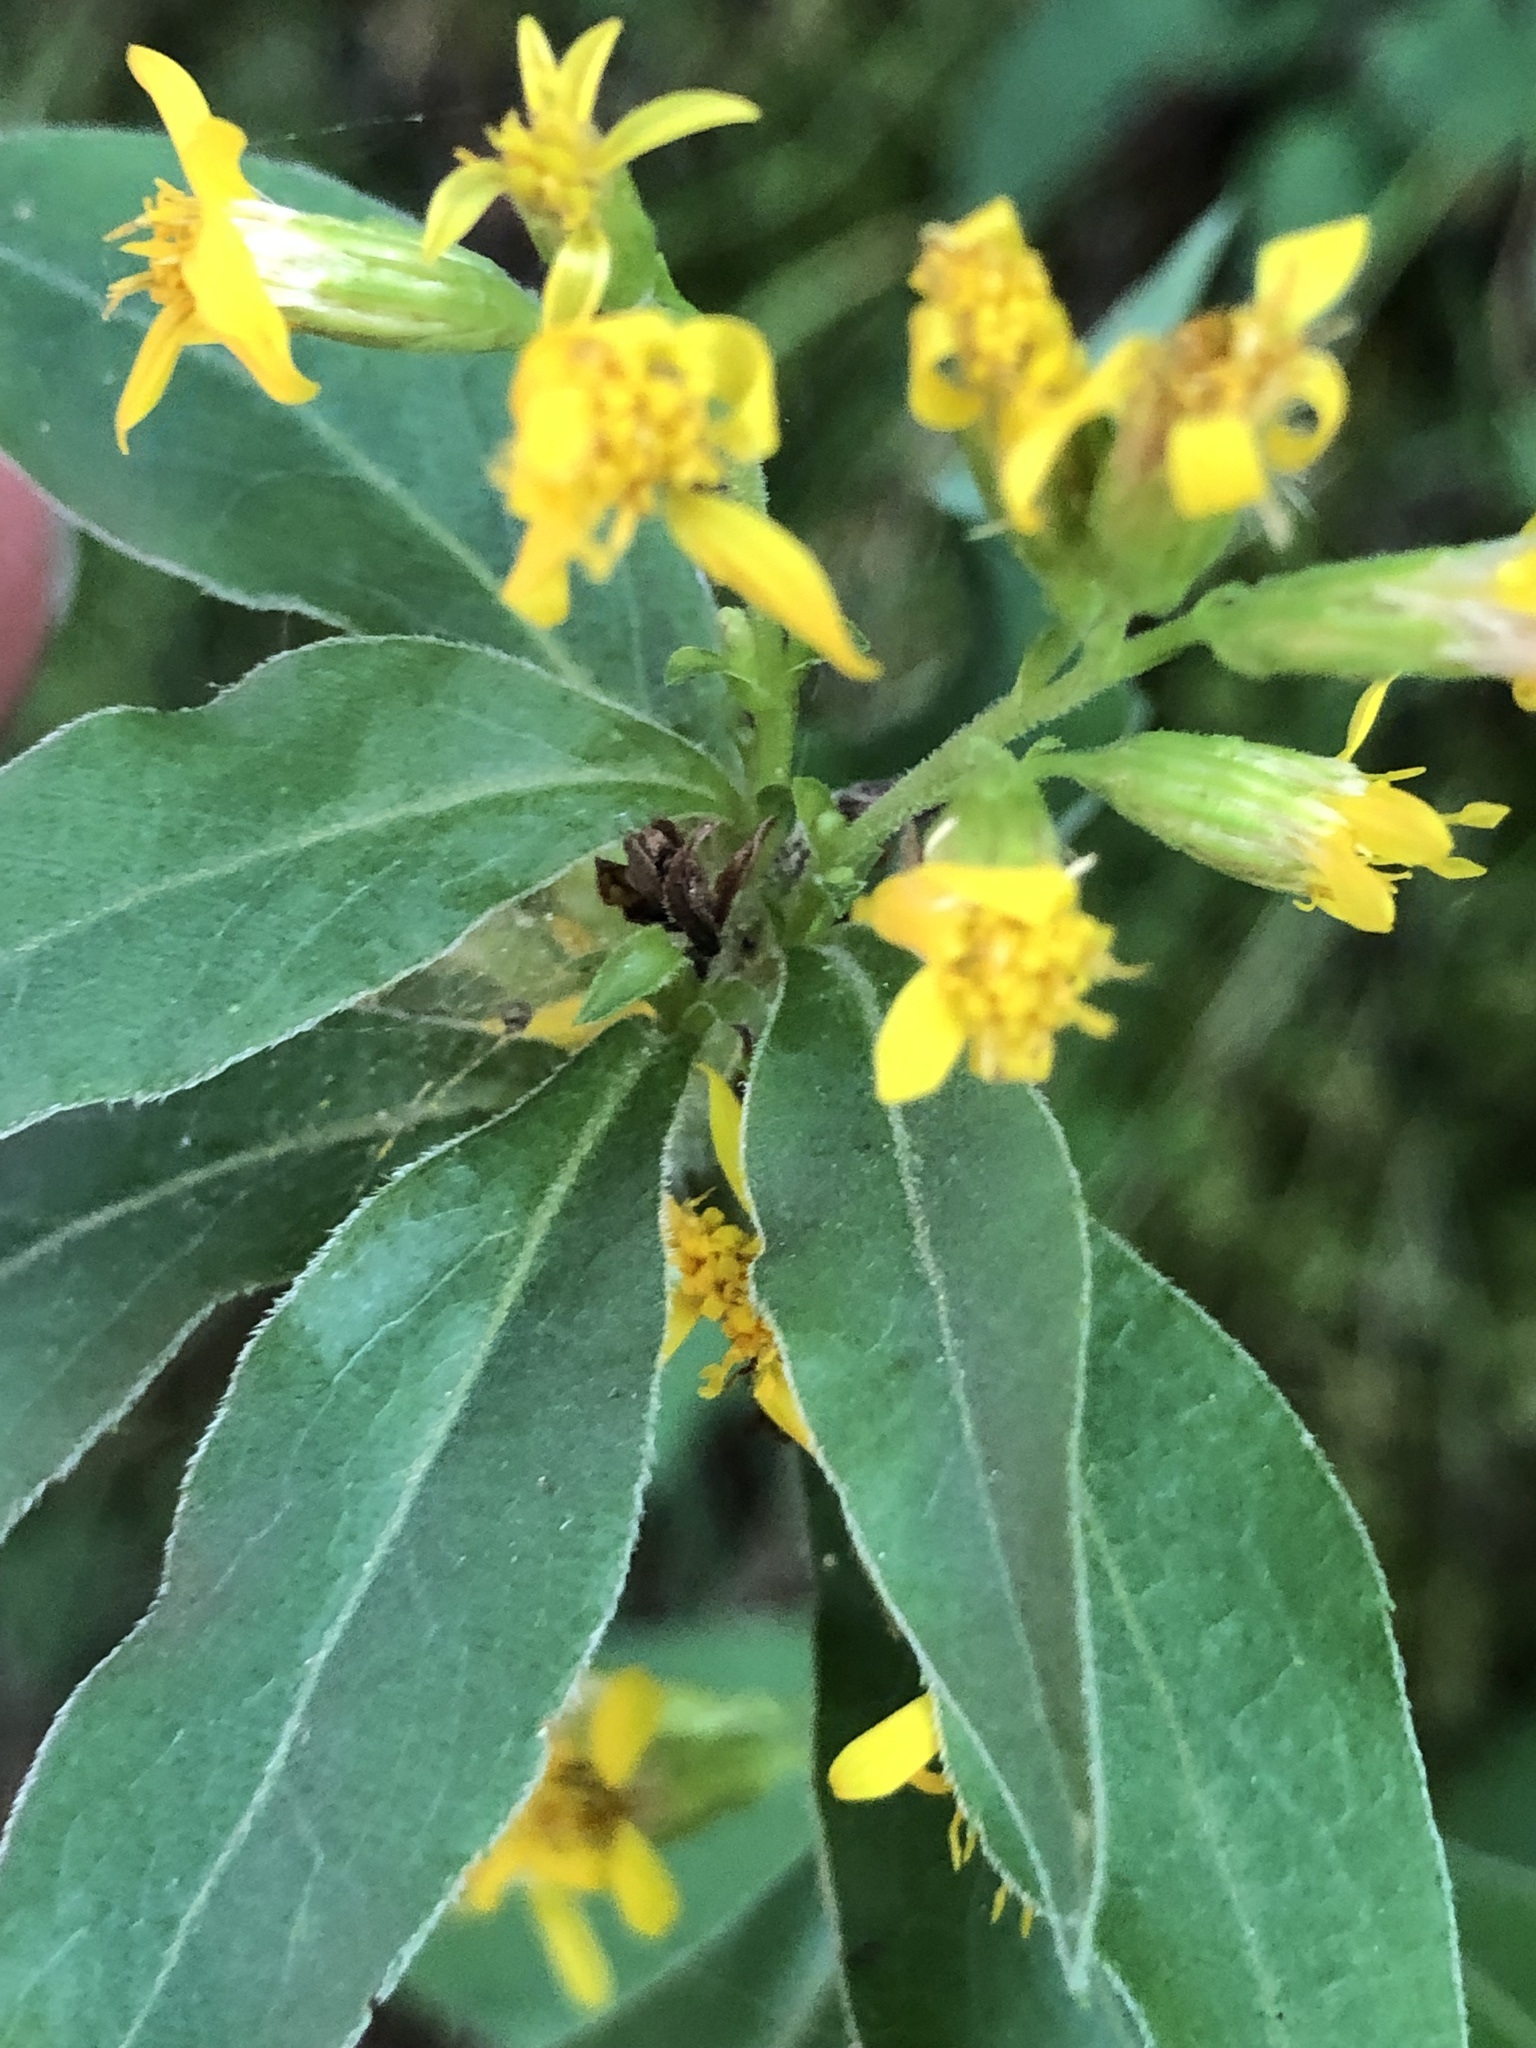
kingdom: Plantae
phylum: Tracheophyta
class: Magnoliopsida
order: Asterales
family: Asteraceae
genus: Solidago
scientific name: Solidago virgaurea
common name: Goldenrod
